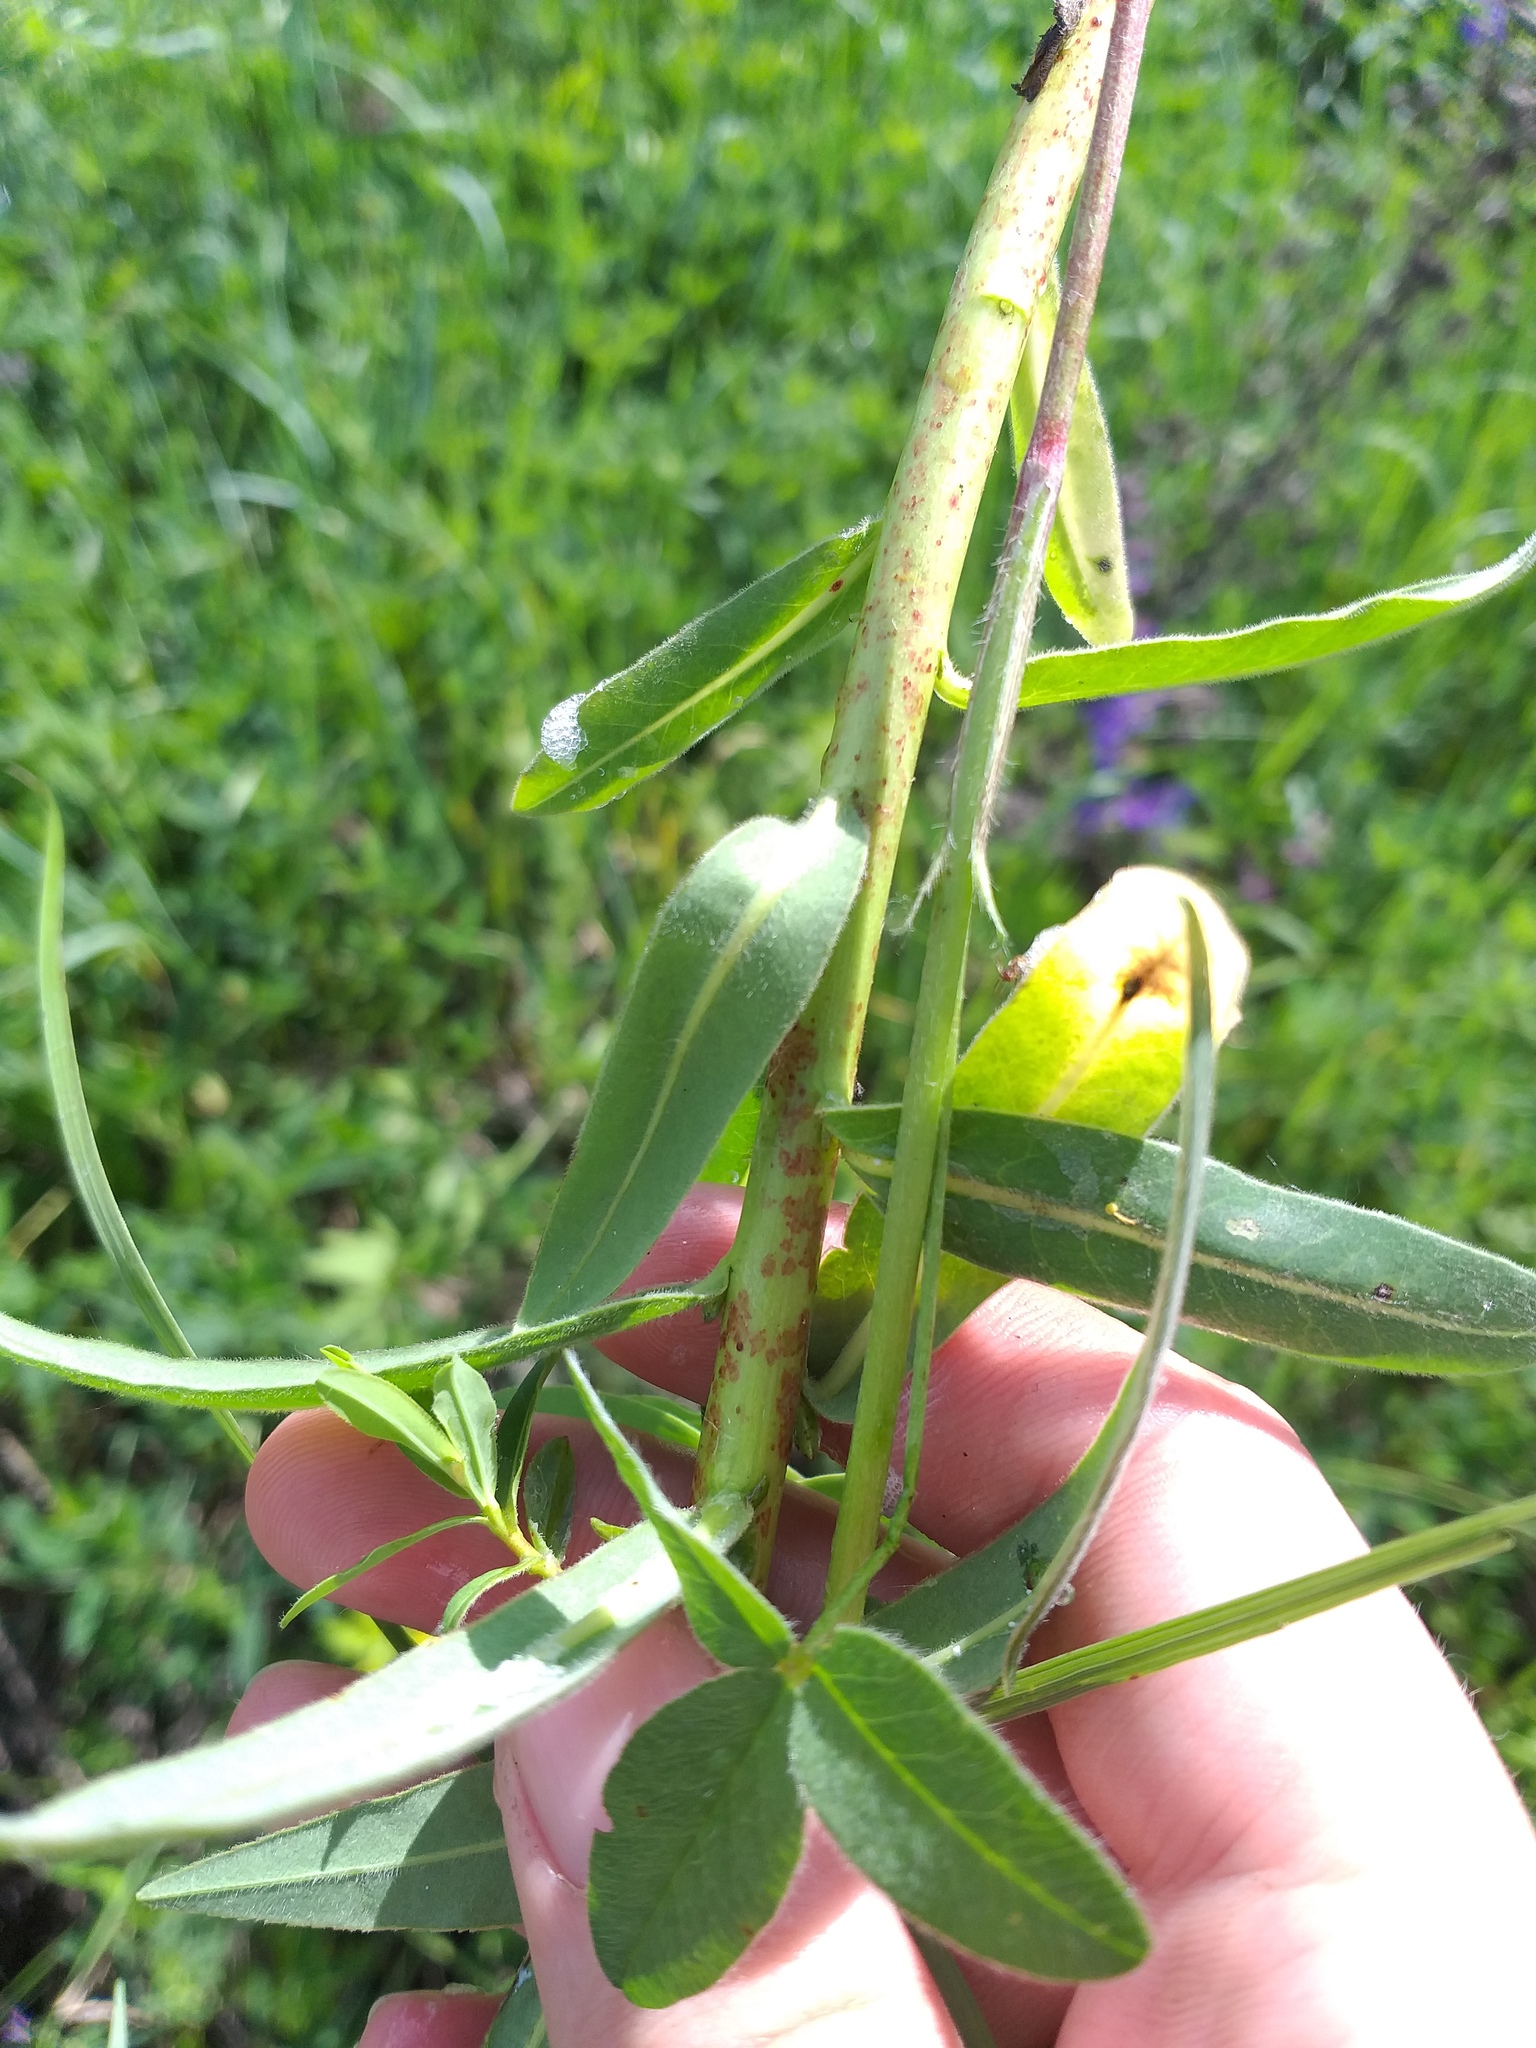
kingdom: Plantae
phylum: Tracheophyta
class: Magnoliopsida
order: Malpighiales
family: Euphorbiaceae
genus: Euphorbia
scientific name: Euphorbia semivillosa
